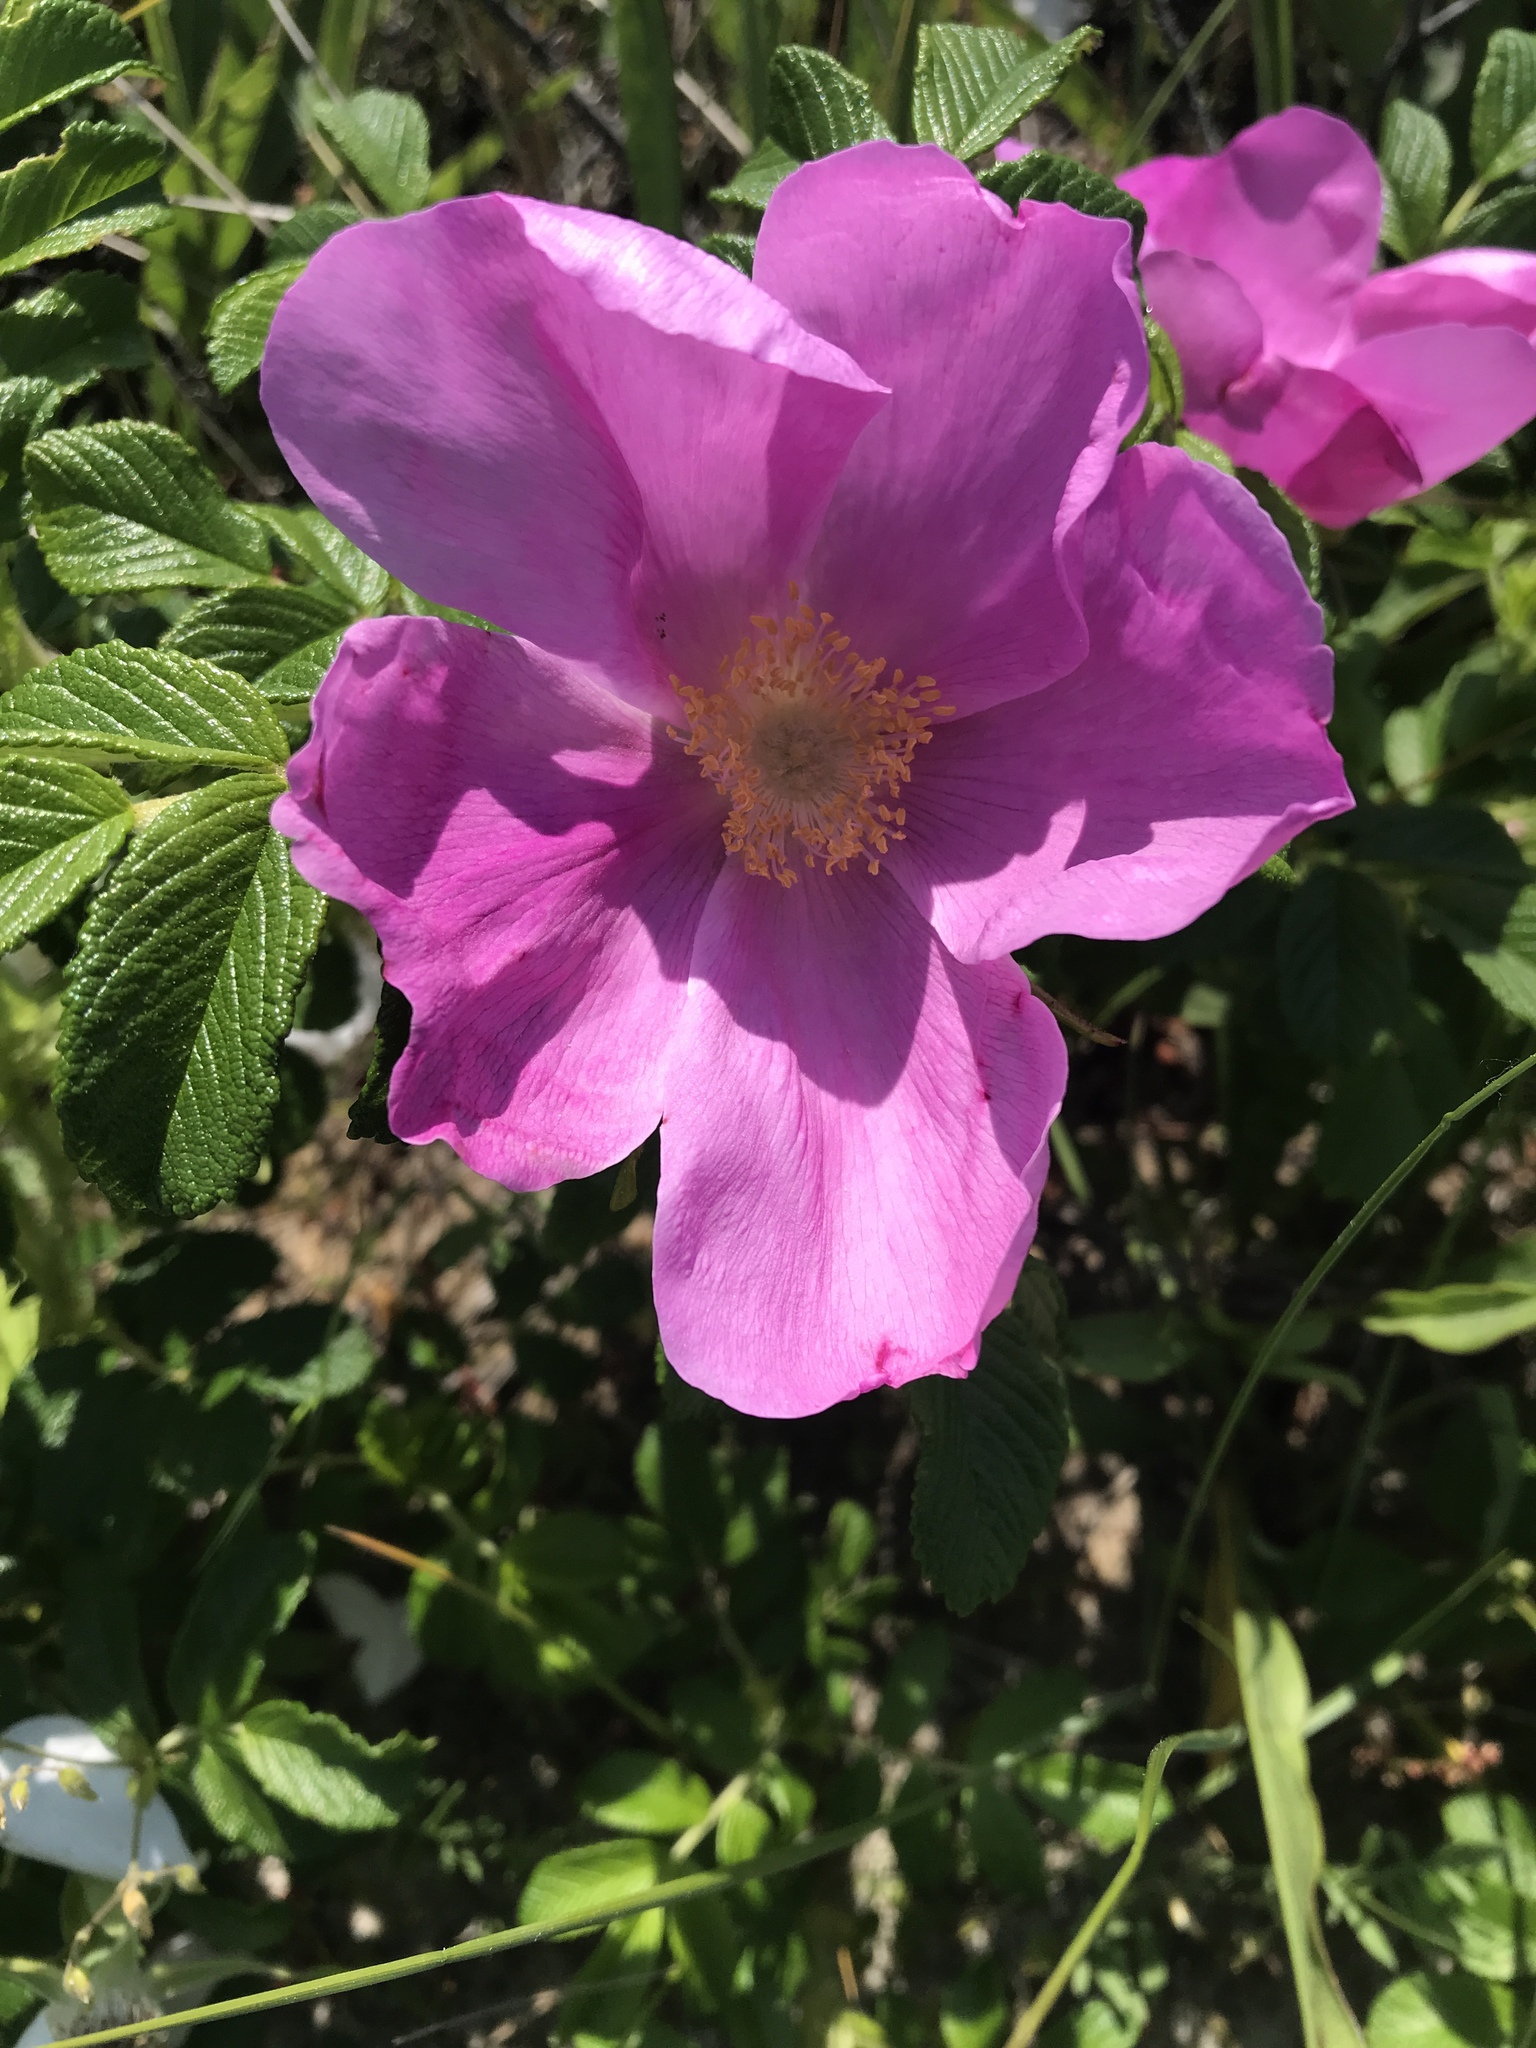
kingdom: Plantae
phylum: Tracheophyta
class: Magnoliopsida
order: Rosales
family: Rosaceae
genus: Rosa
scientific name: Rosa rugosa
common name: Japanese rose
